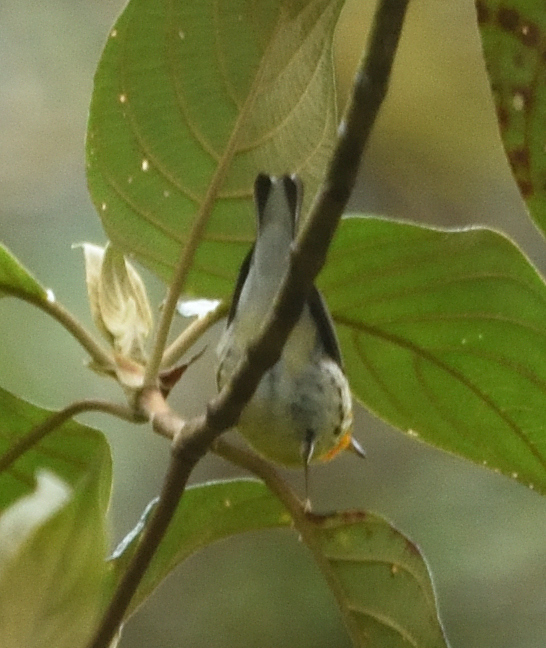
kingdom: Animalia
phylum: Chordata
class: Aves
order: Passeriformes
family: Parulidae
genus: Setophaga
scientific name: Setophaga fusca
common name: Blackburnian warbler
